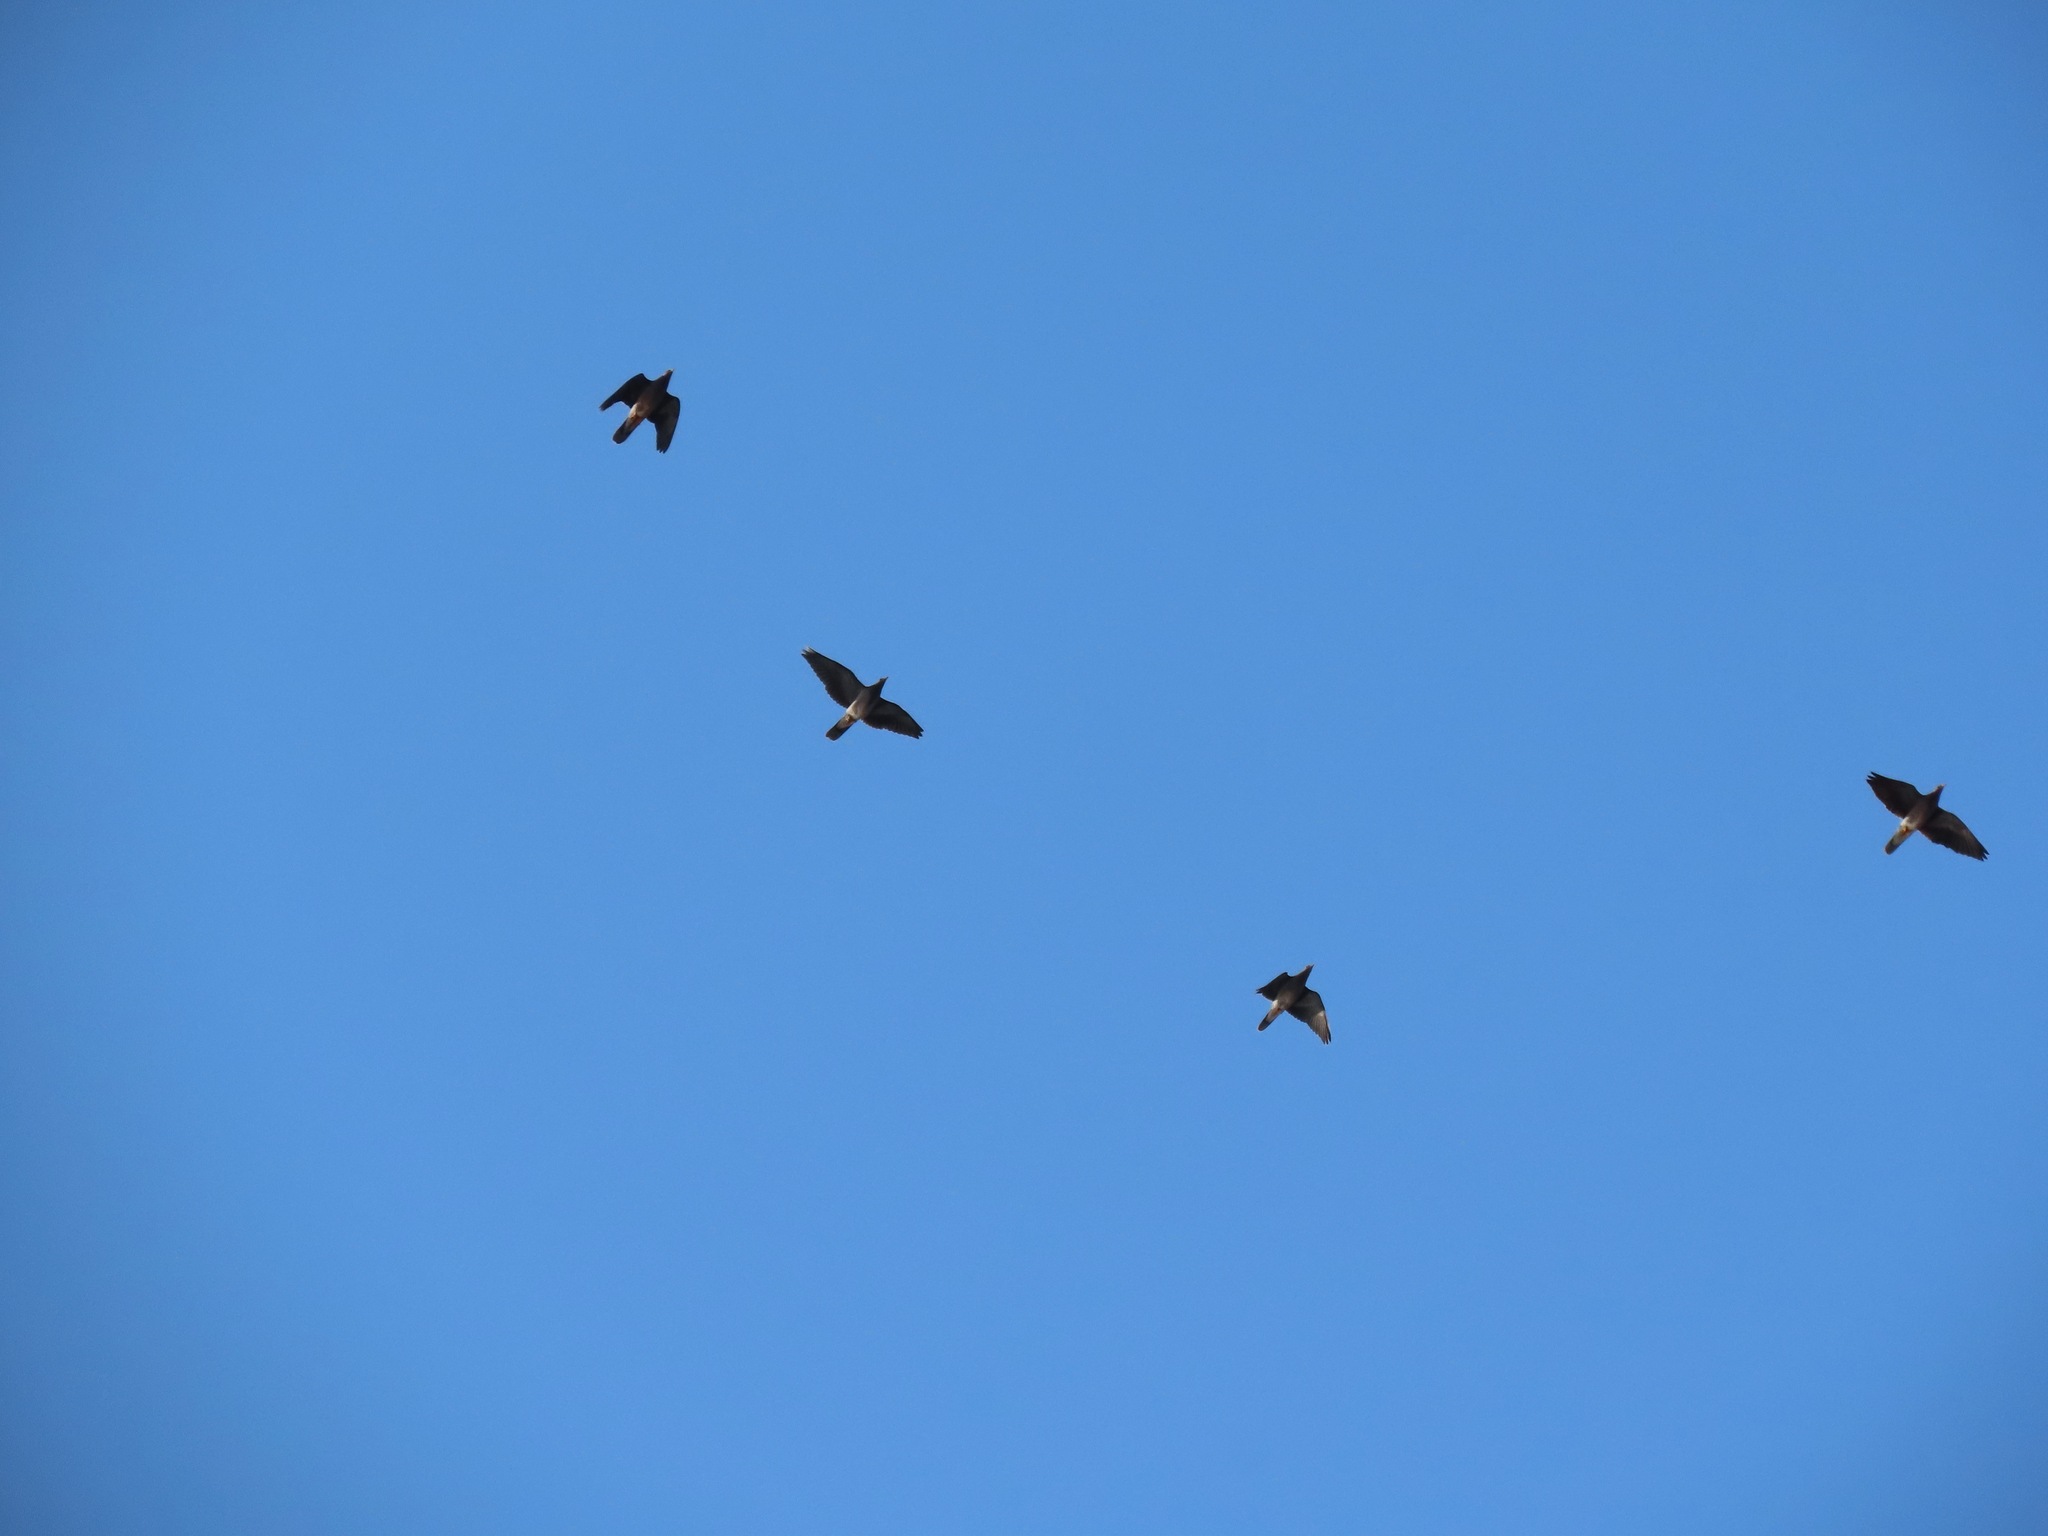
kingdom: Animalia
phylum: Chordata
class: Aves
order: Columbiformes
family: Columbidae
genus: Patagioenas
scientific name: Patagioenas fasciata
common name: Band-tailed pigeon
